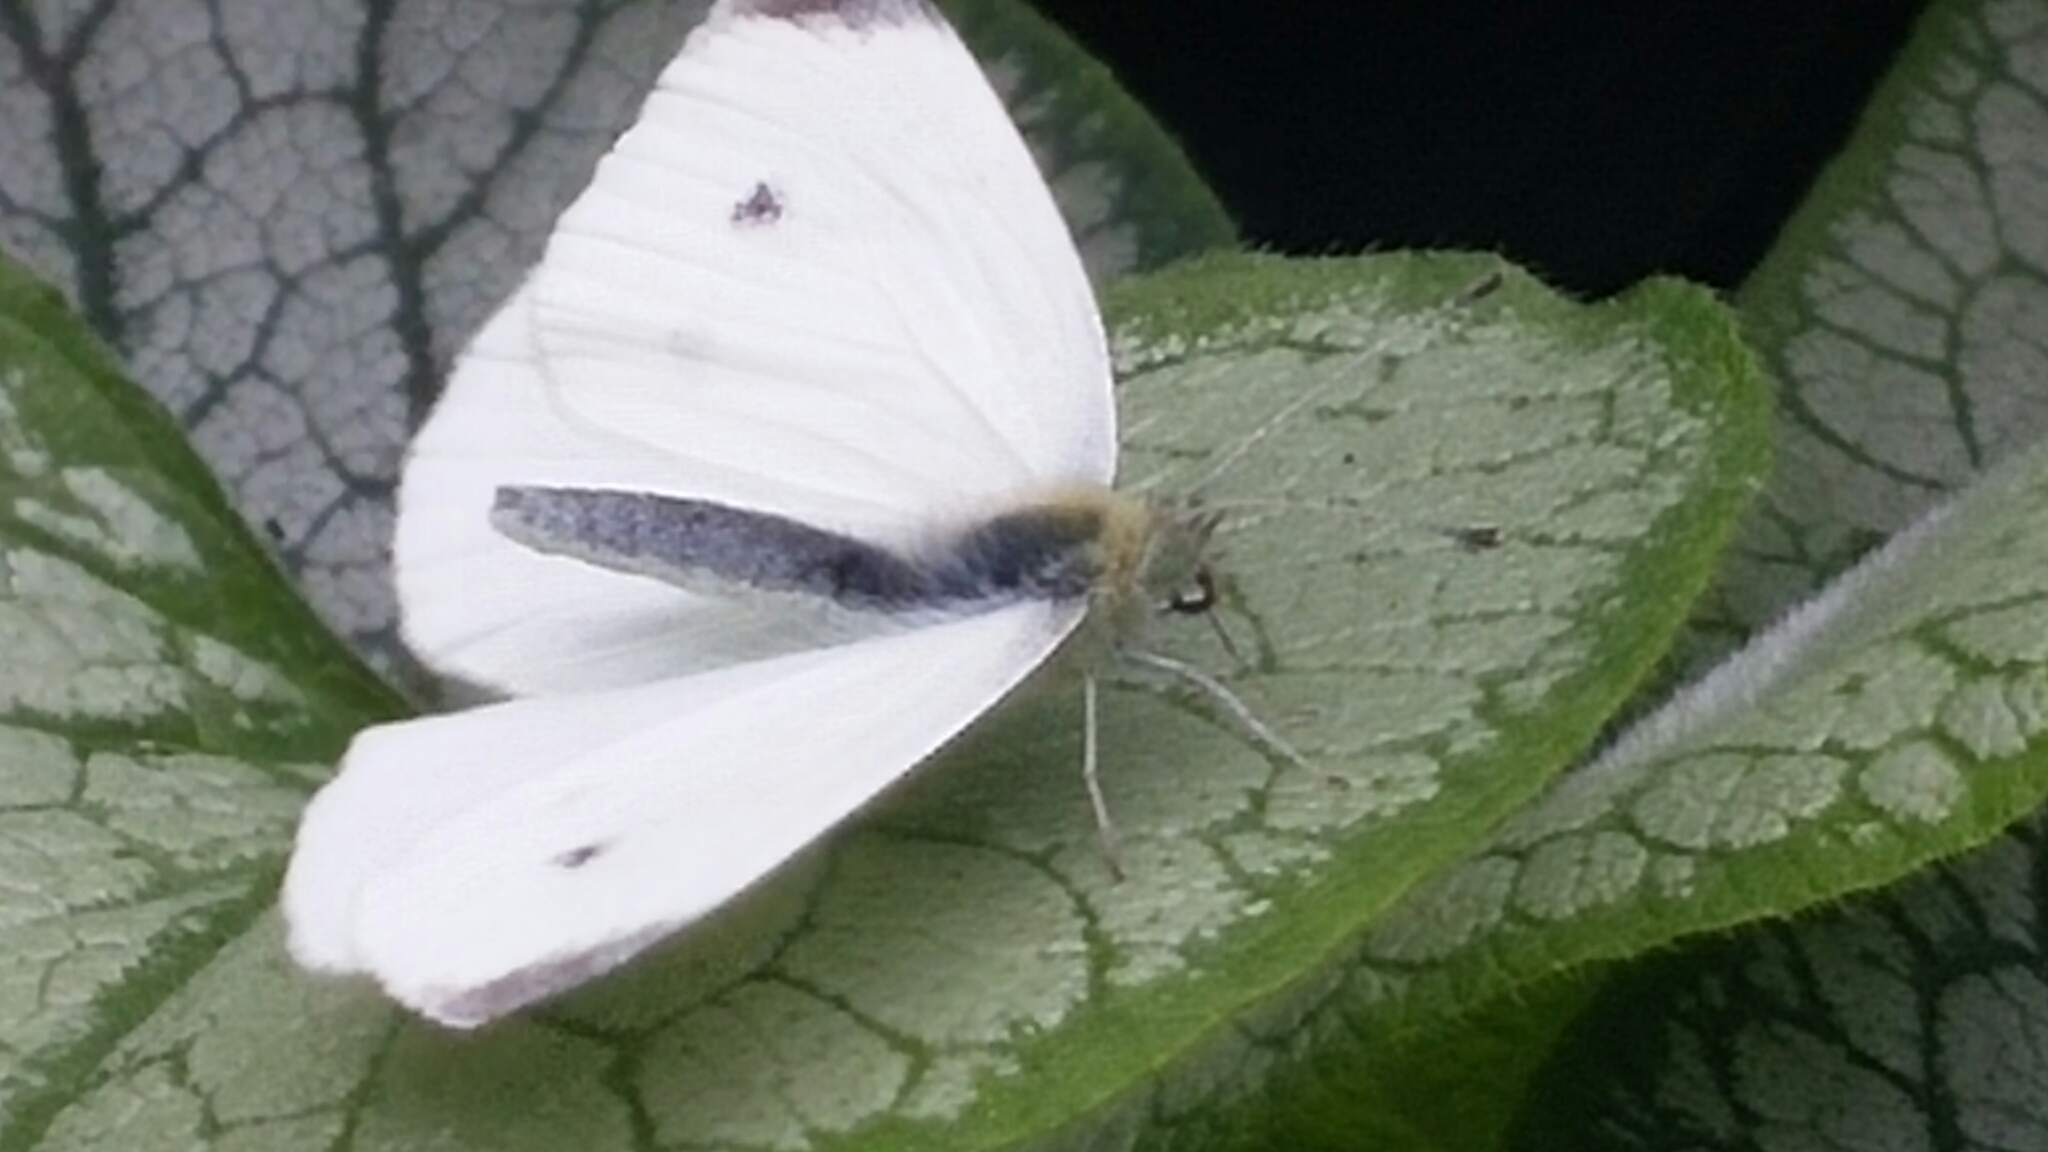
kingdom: Animalia
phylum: Arthropoda
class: Insecta
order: Lepidoptera
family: Pieridae
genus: Pieris
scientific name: Pieris rapae
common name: Small white
